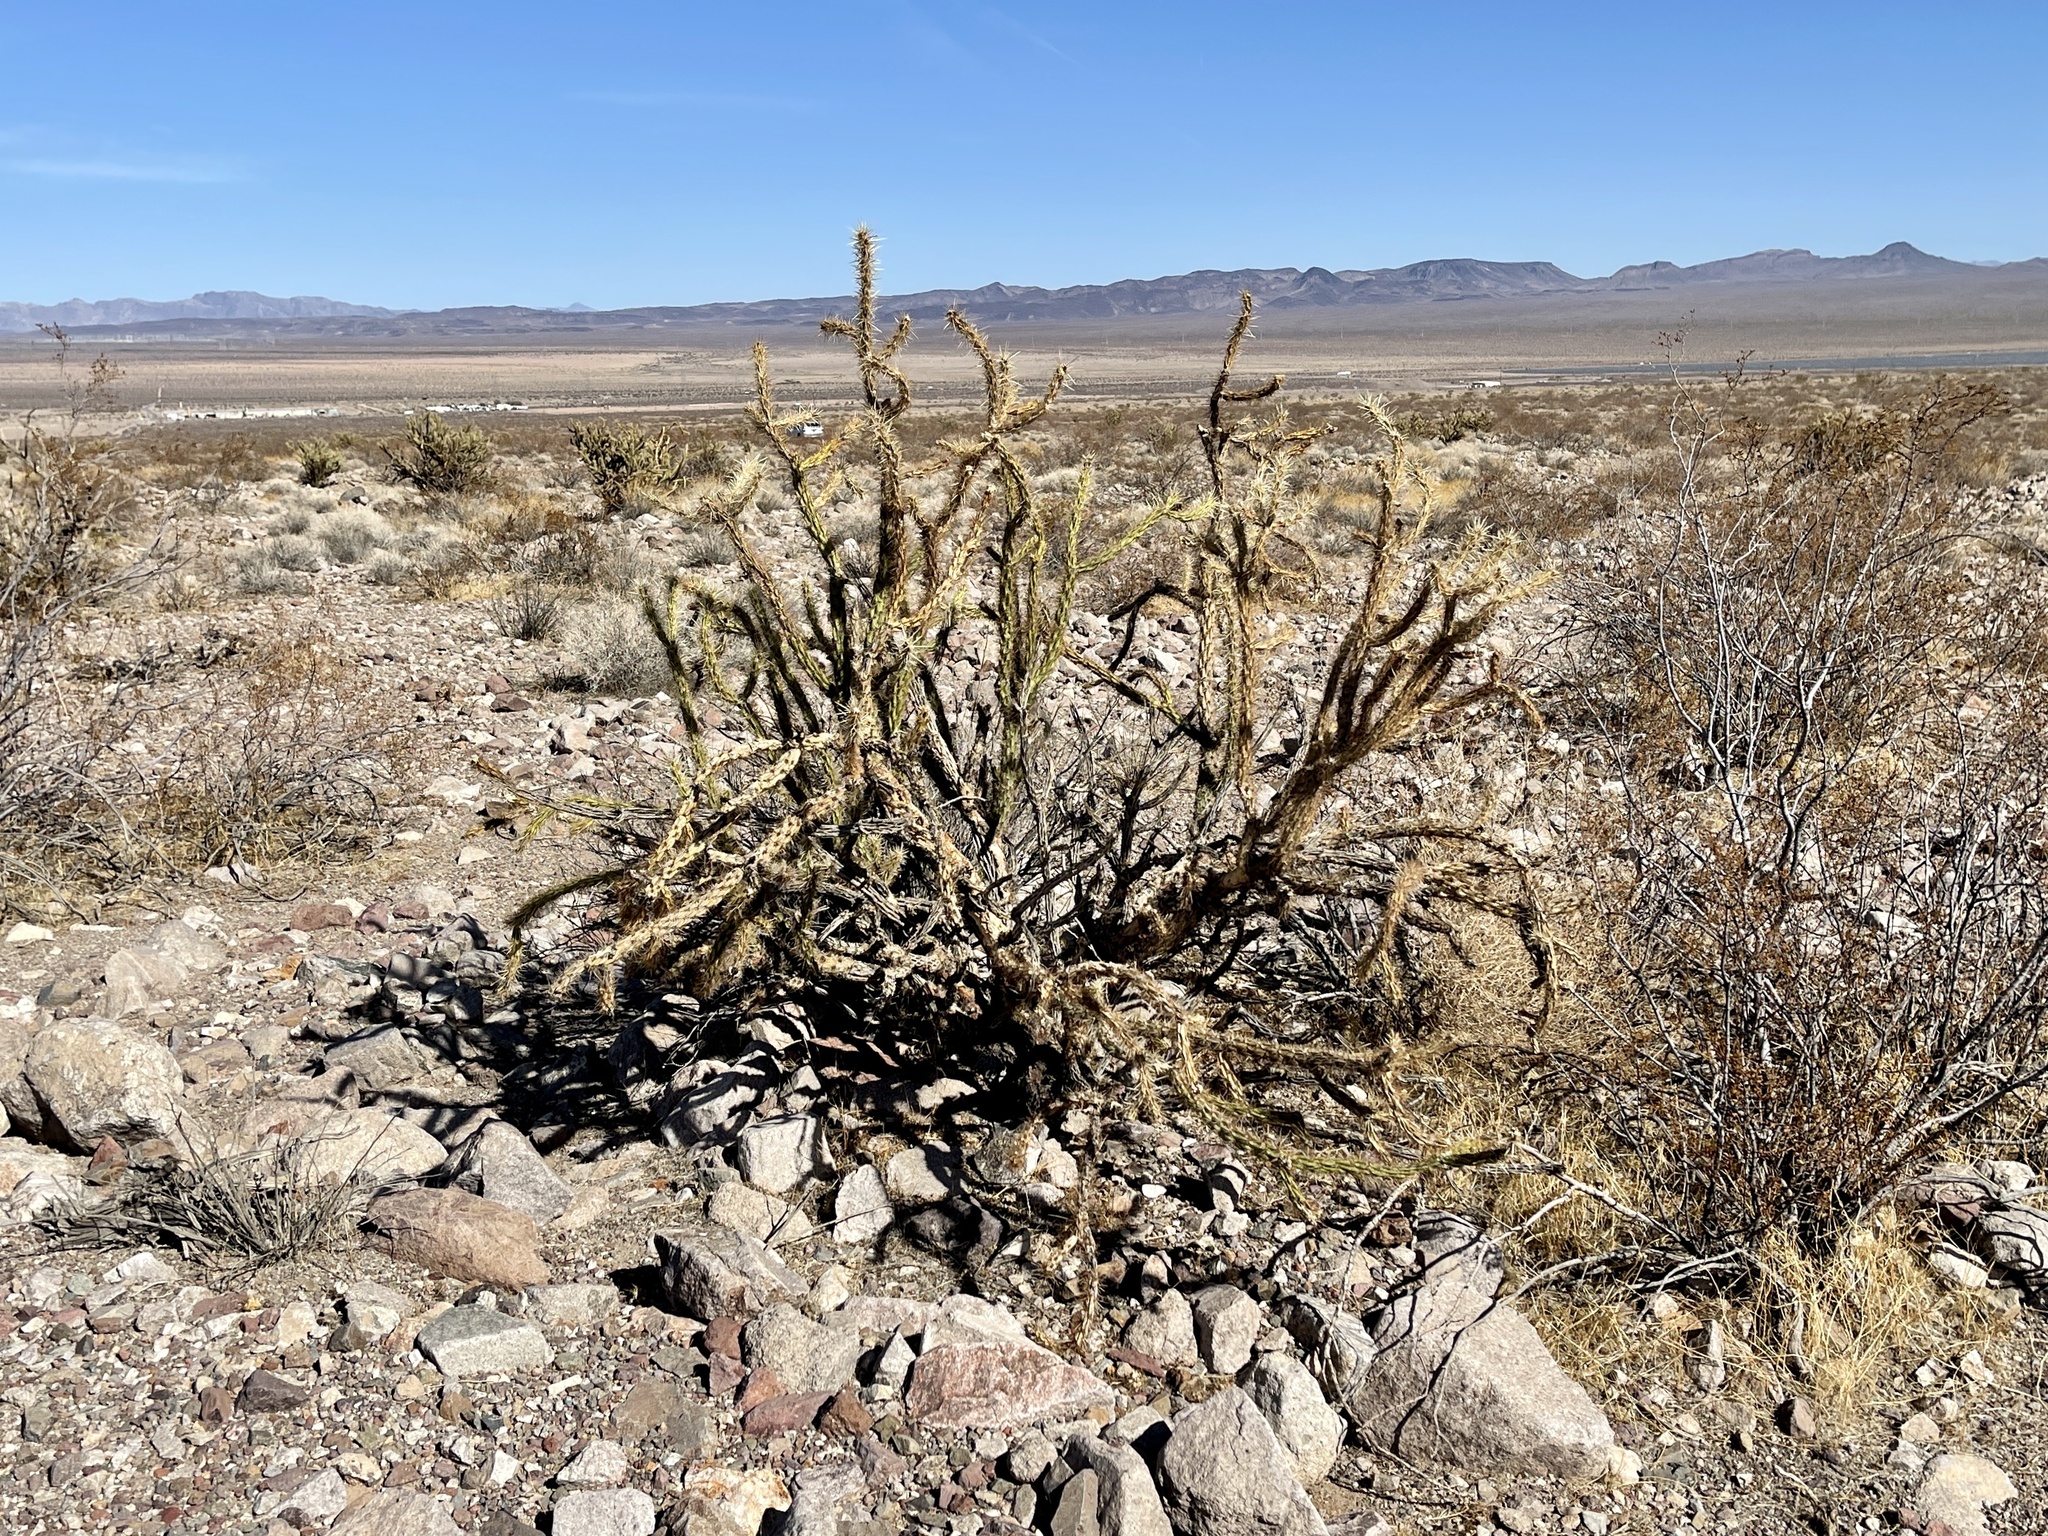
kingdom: Plantae
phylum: Tracheophyta
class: Magnoliopsida
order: Caryophyllales
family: Cactaceae
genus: Cylindropuntia
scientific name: Cylindropuntia acanthocarpa
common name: Buckhorn cholla
